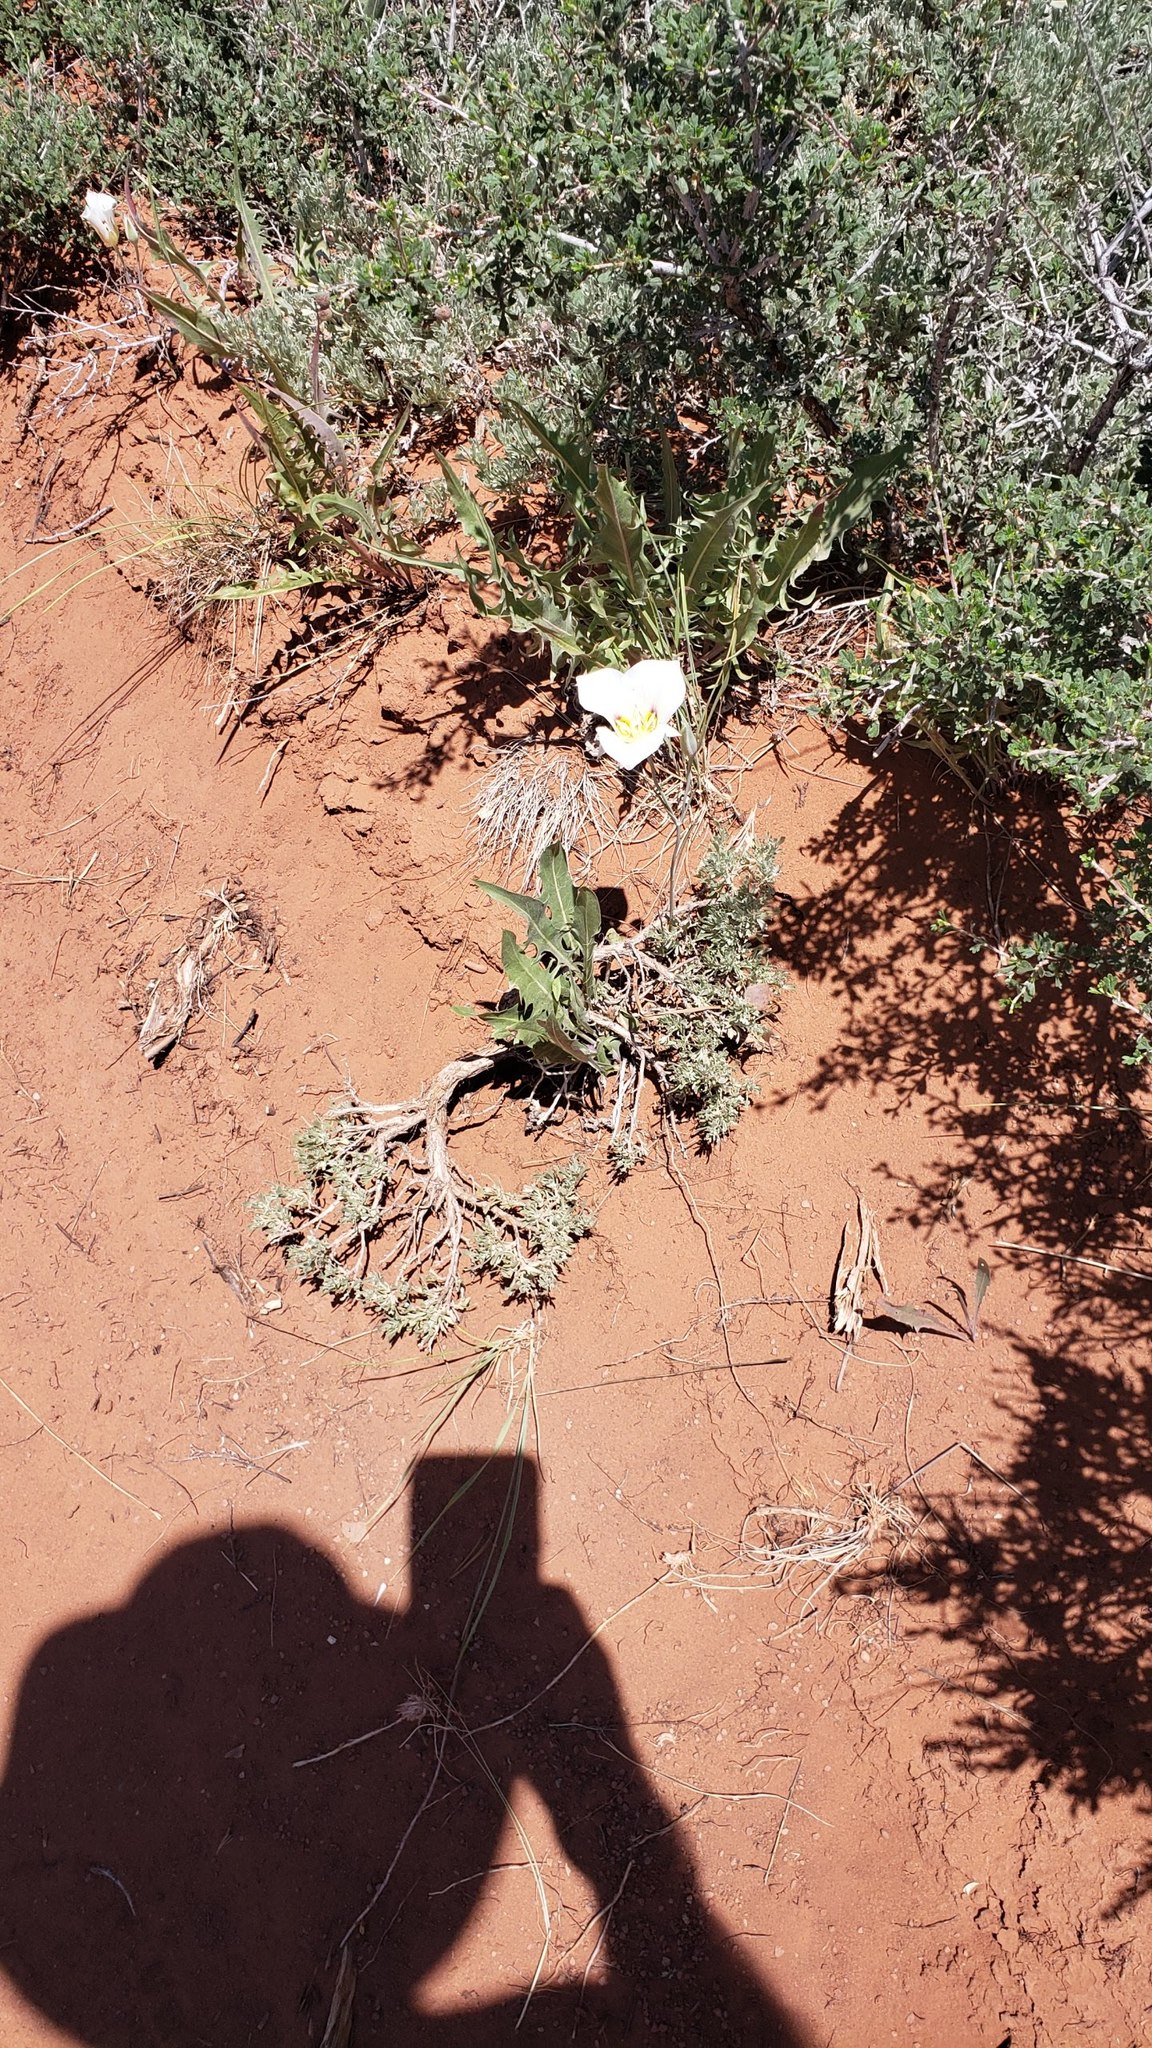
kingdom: Plantae
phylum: Tracheophyta
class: Liliopsida
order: Liliales
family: Liliaceae
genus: Calochortus
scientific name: Calochortus nuttallii
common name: Sego-lily
